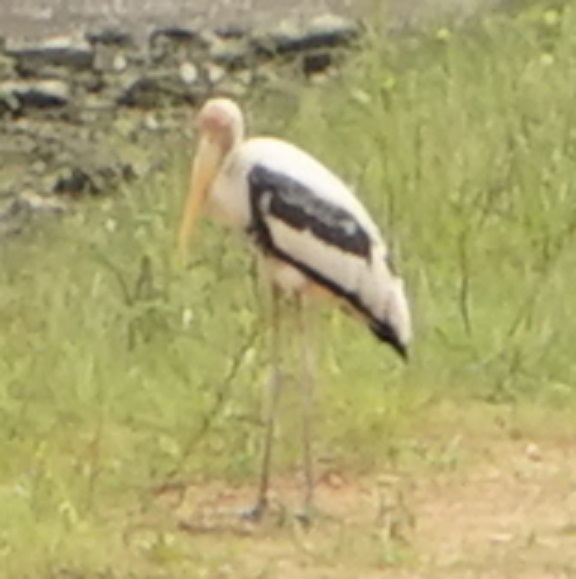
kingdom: Animalia
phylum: Chordata
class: Aves
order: Ciconiiformes
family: Ciconiidae
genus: Mycteria
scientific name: Mycteria leucocephala
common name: Painted stork
